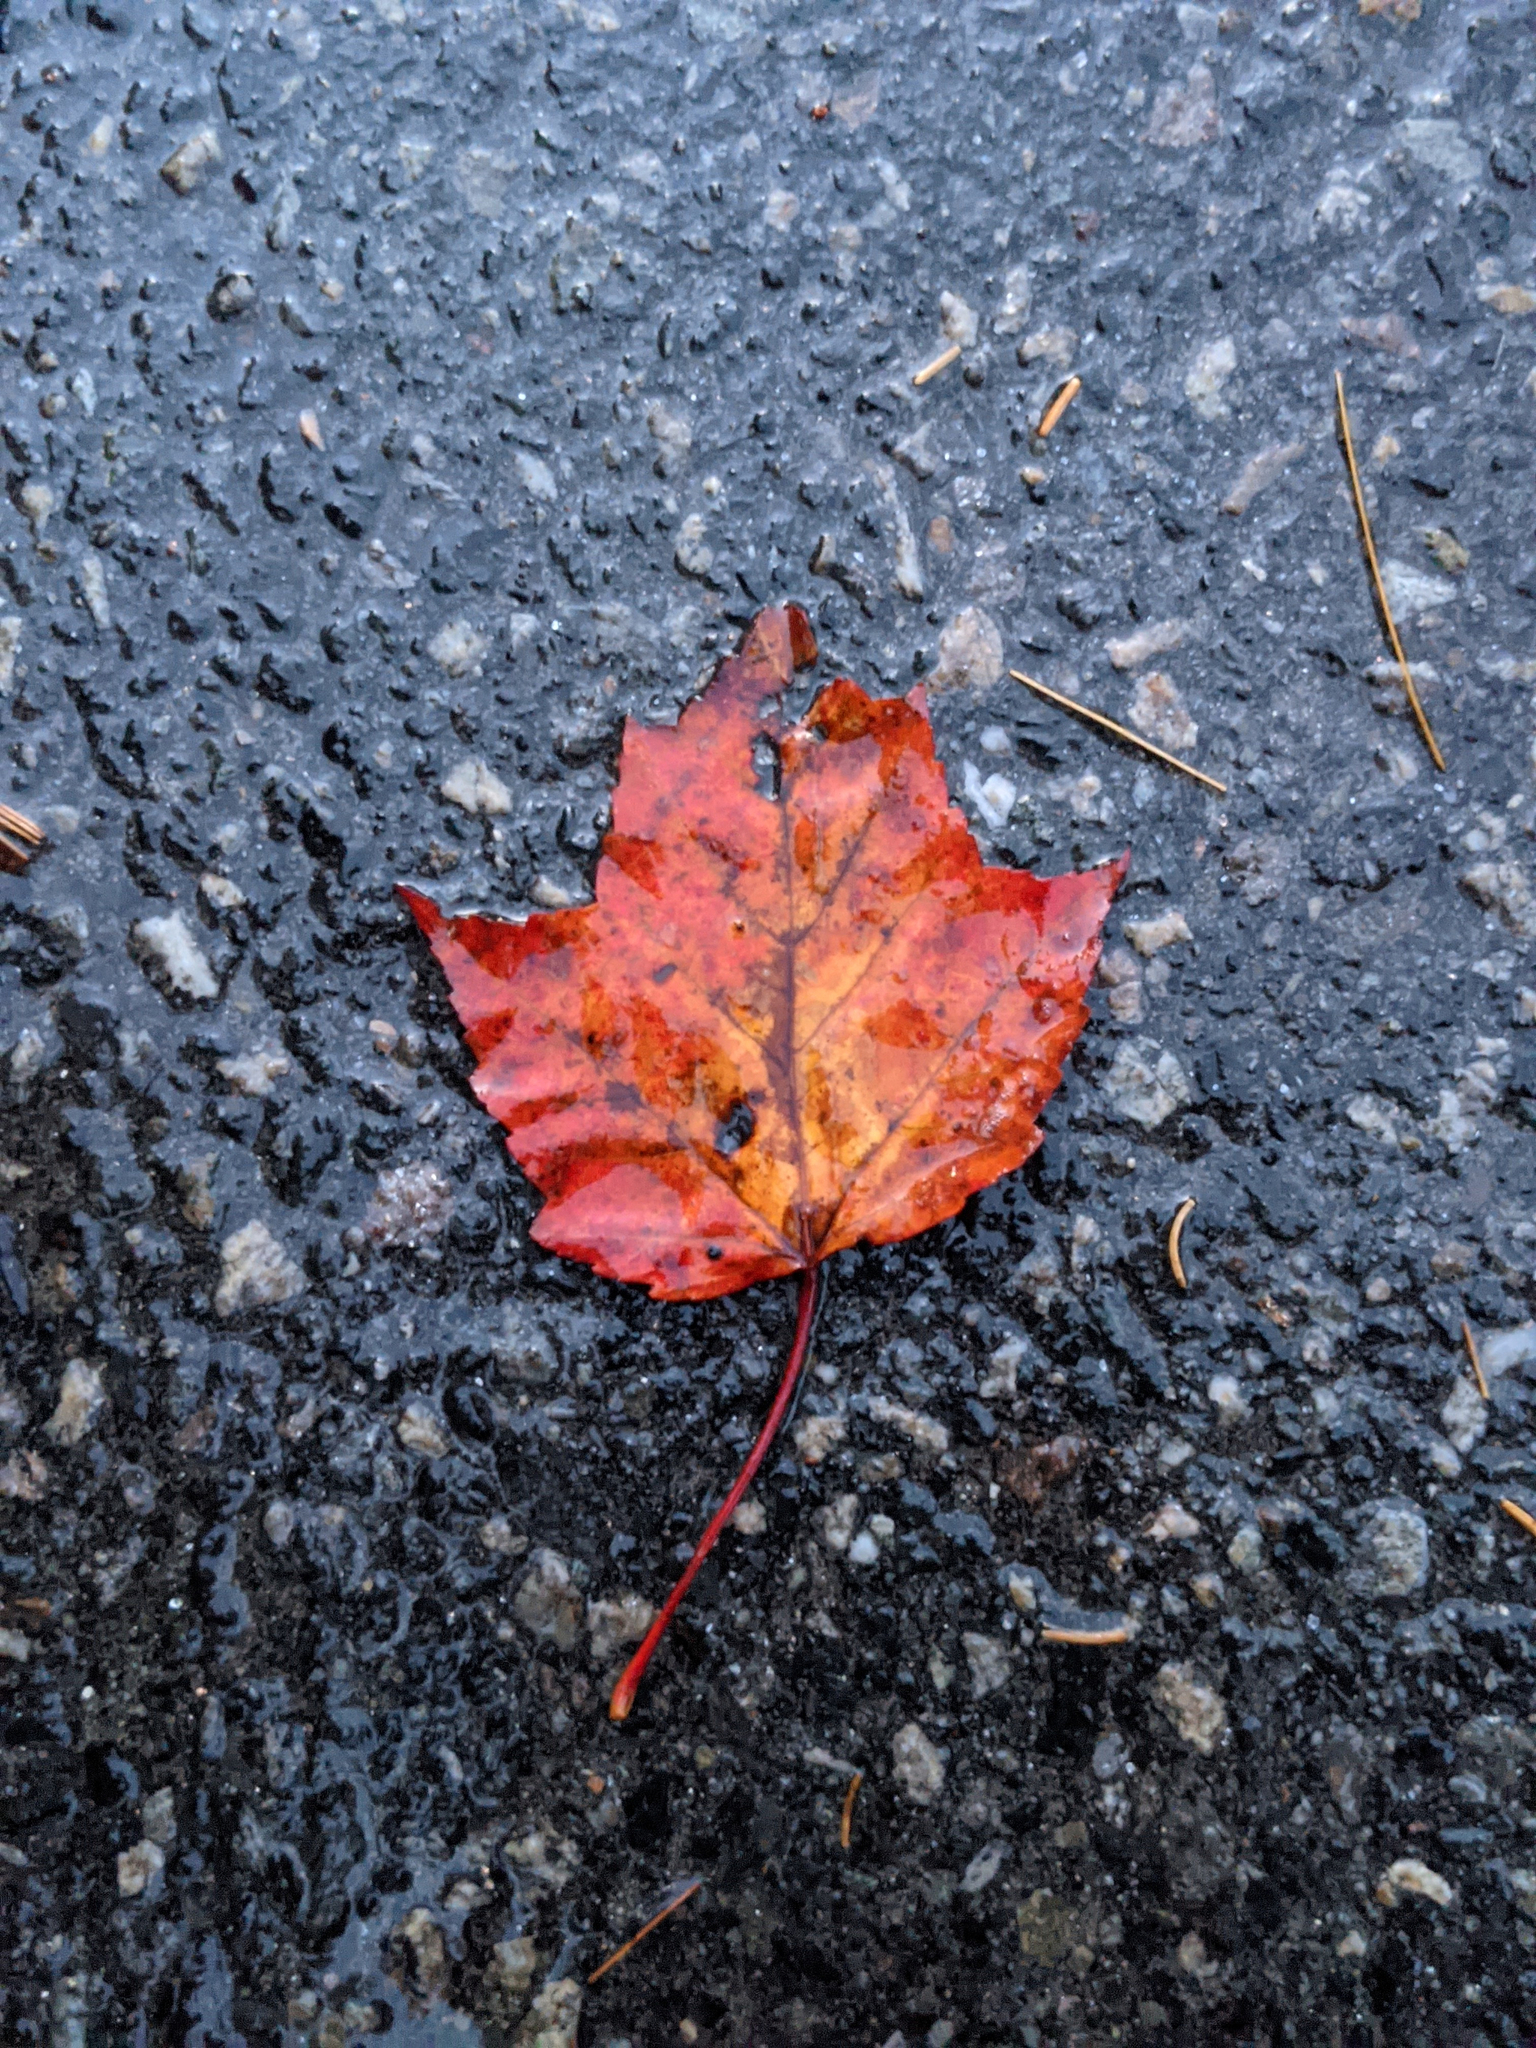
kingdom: Plantae
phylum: Tracheophyta
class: Magnoliopsida
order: Sapindales
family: Sapindaceae
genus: Acer
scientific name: Acer rubrum
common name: Red maple
